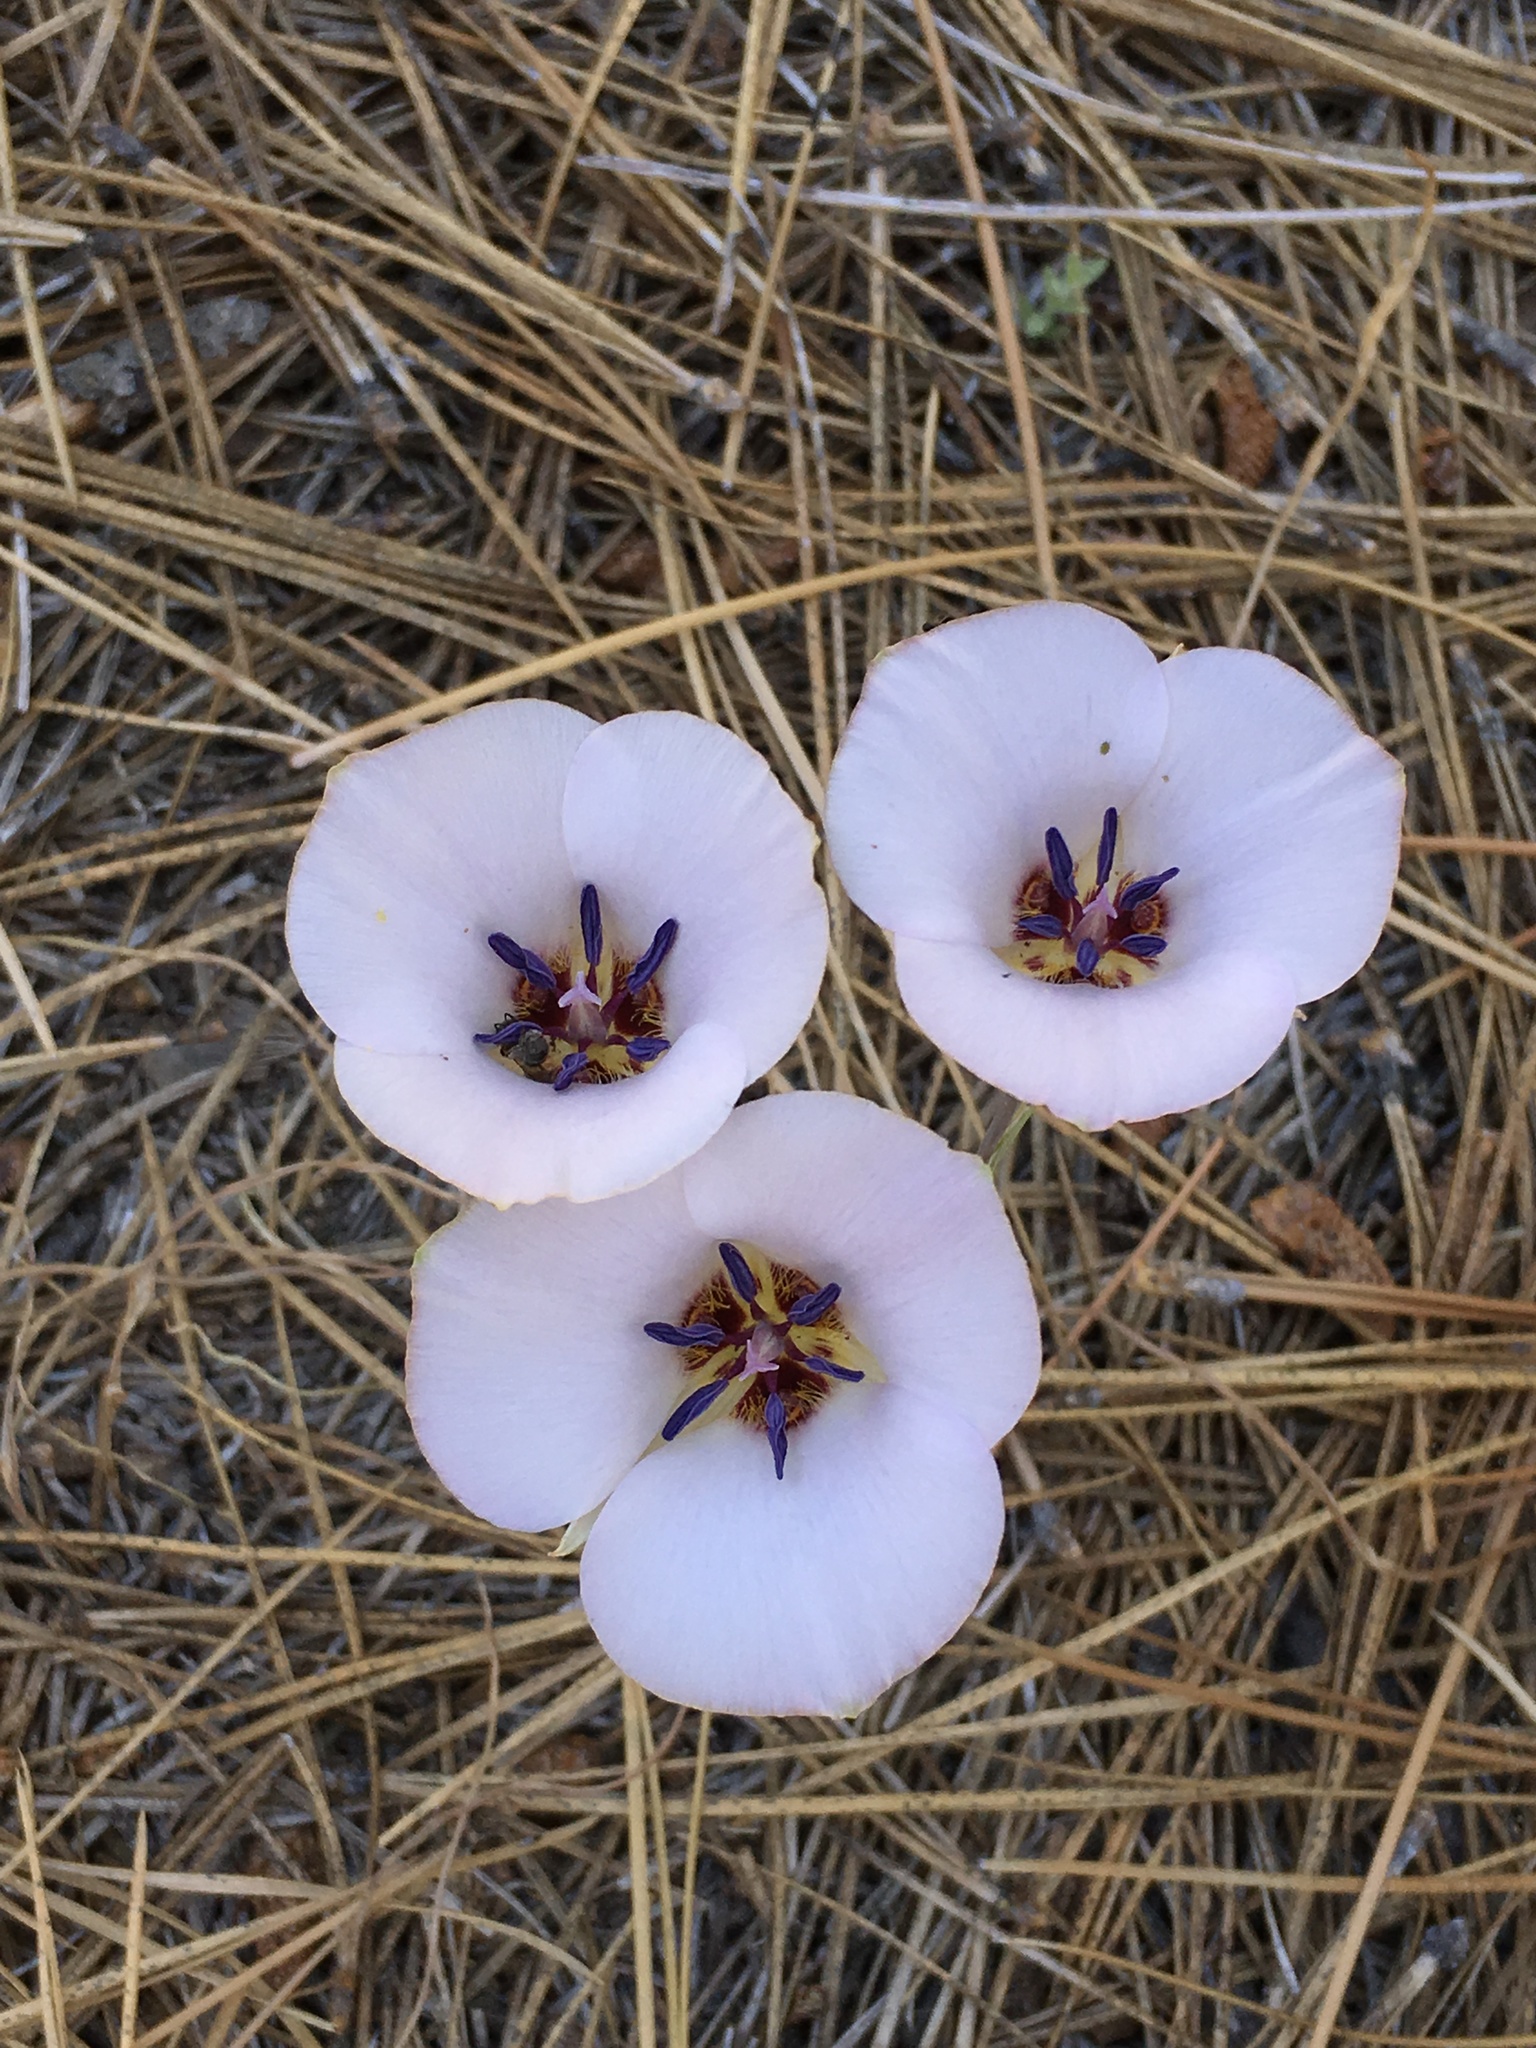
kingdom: Plantae
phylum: Tracheophyta
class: Liliopsida
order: Liliales
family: Liliaceae
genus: Calochortus
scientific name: Calochortus invenustus
